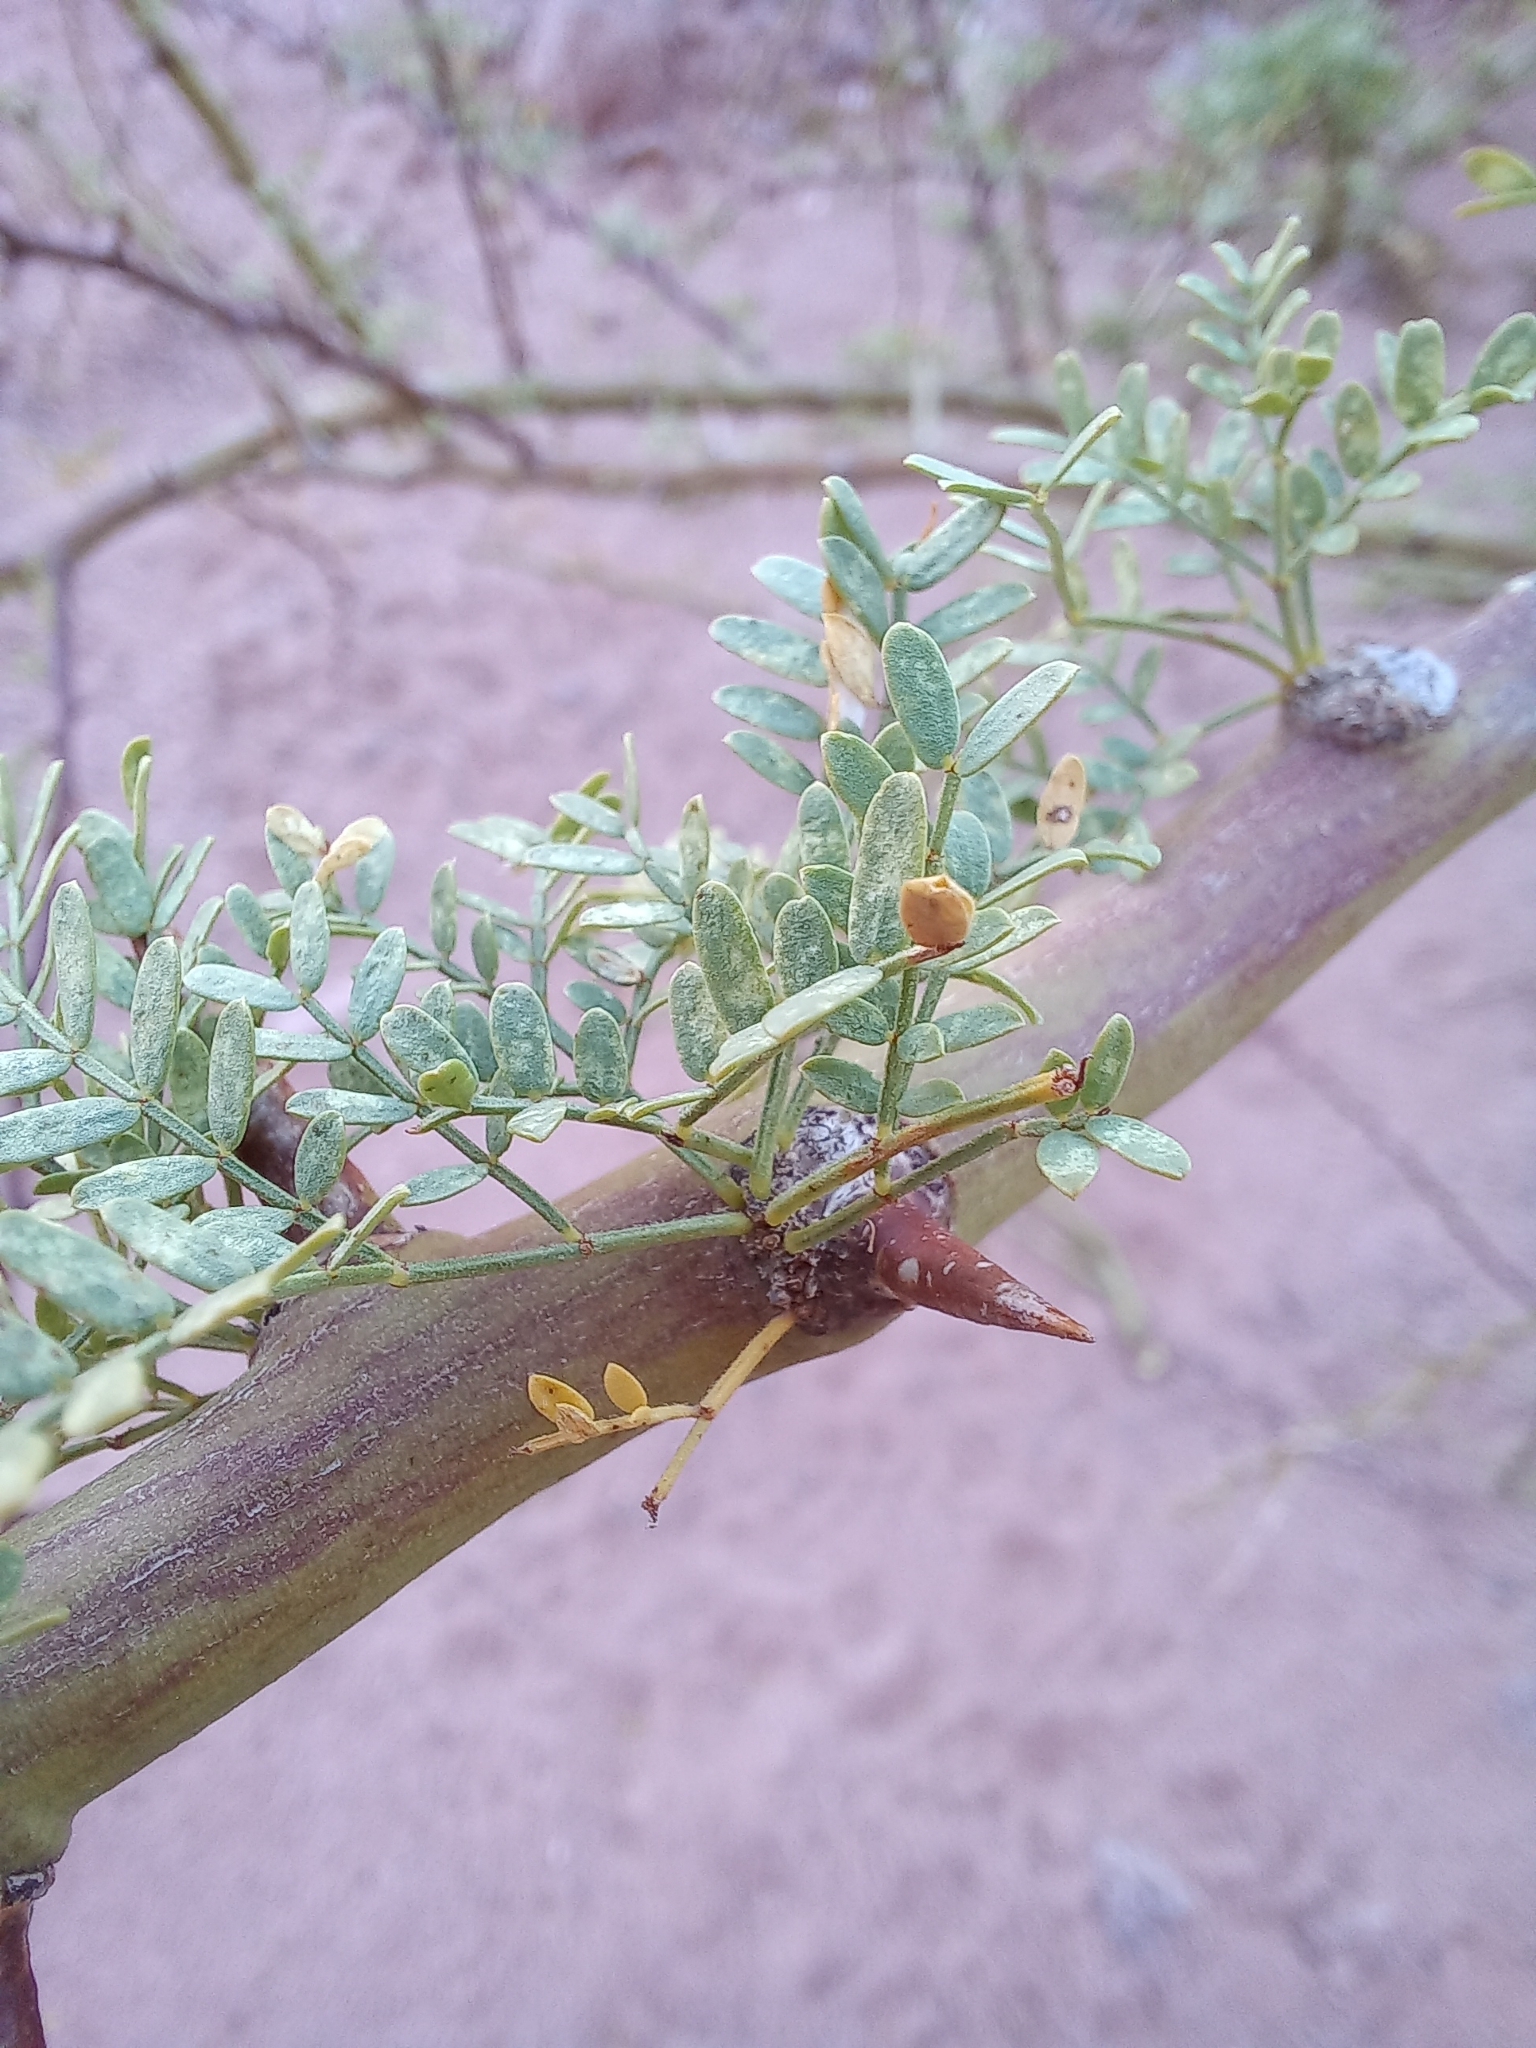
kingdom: Plantae
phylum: Tracheophyta
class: Magnoliopsida
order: Fabales
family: Fabaceae
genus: Parkinsonia
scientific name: Parkinsonia praecox
